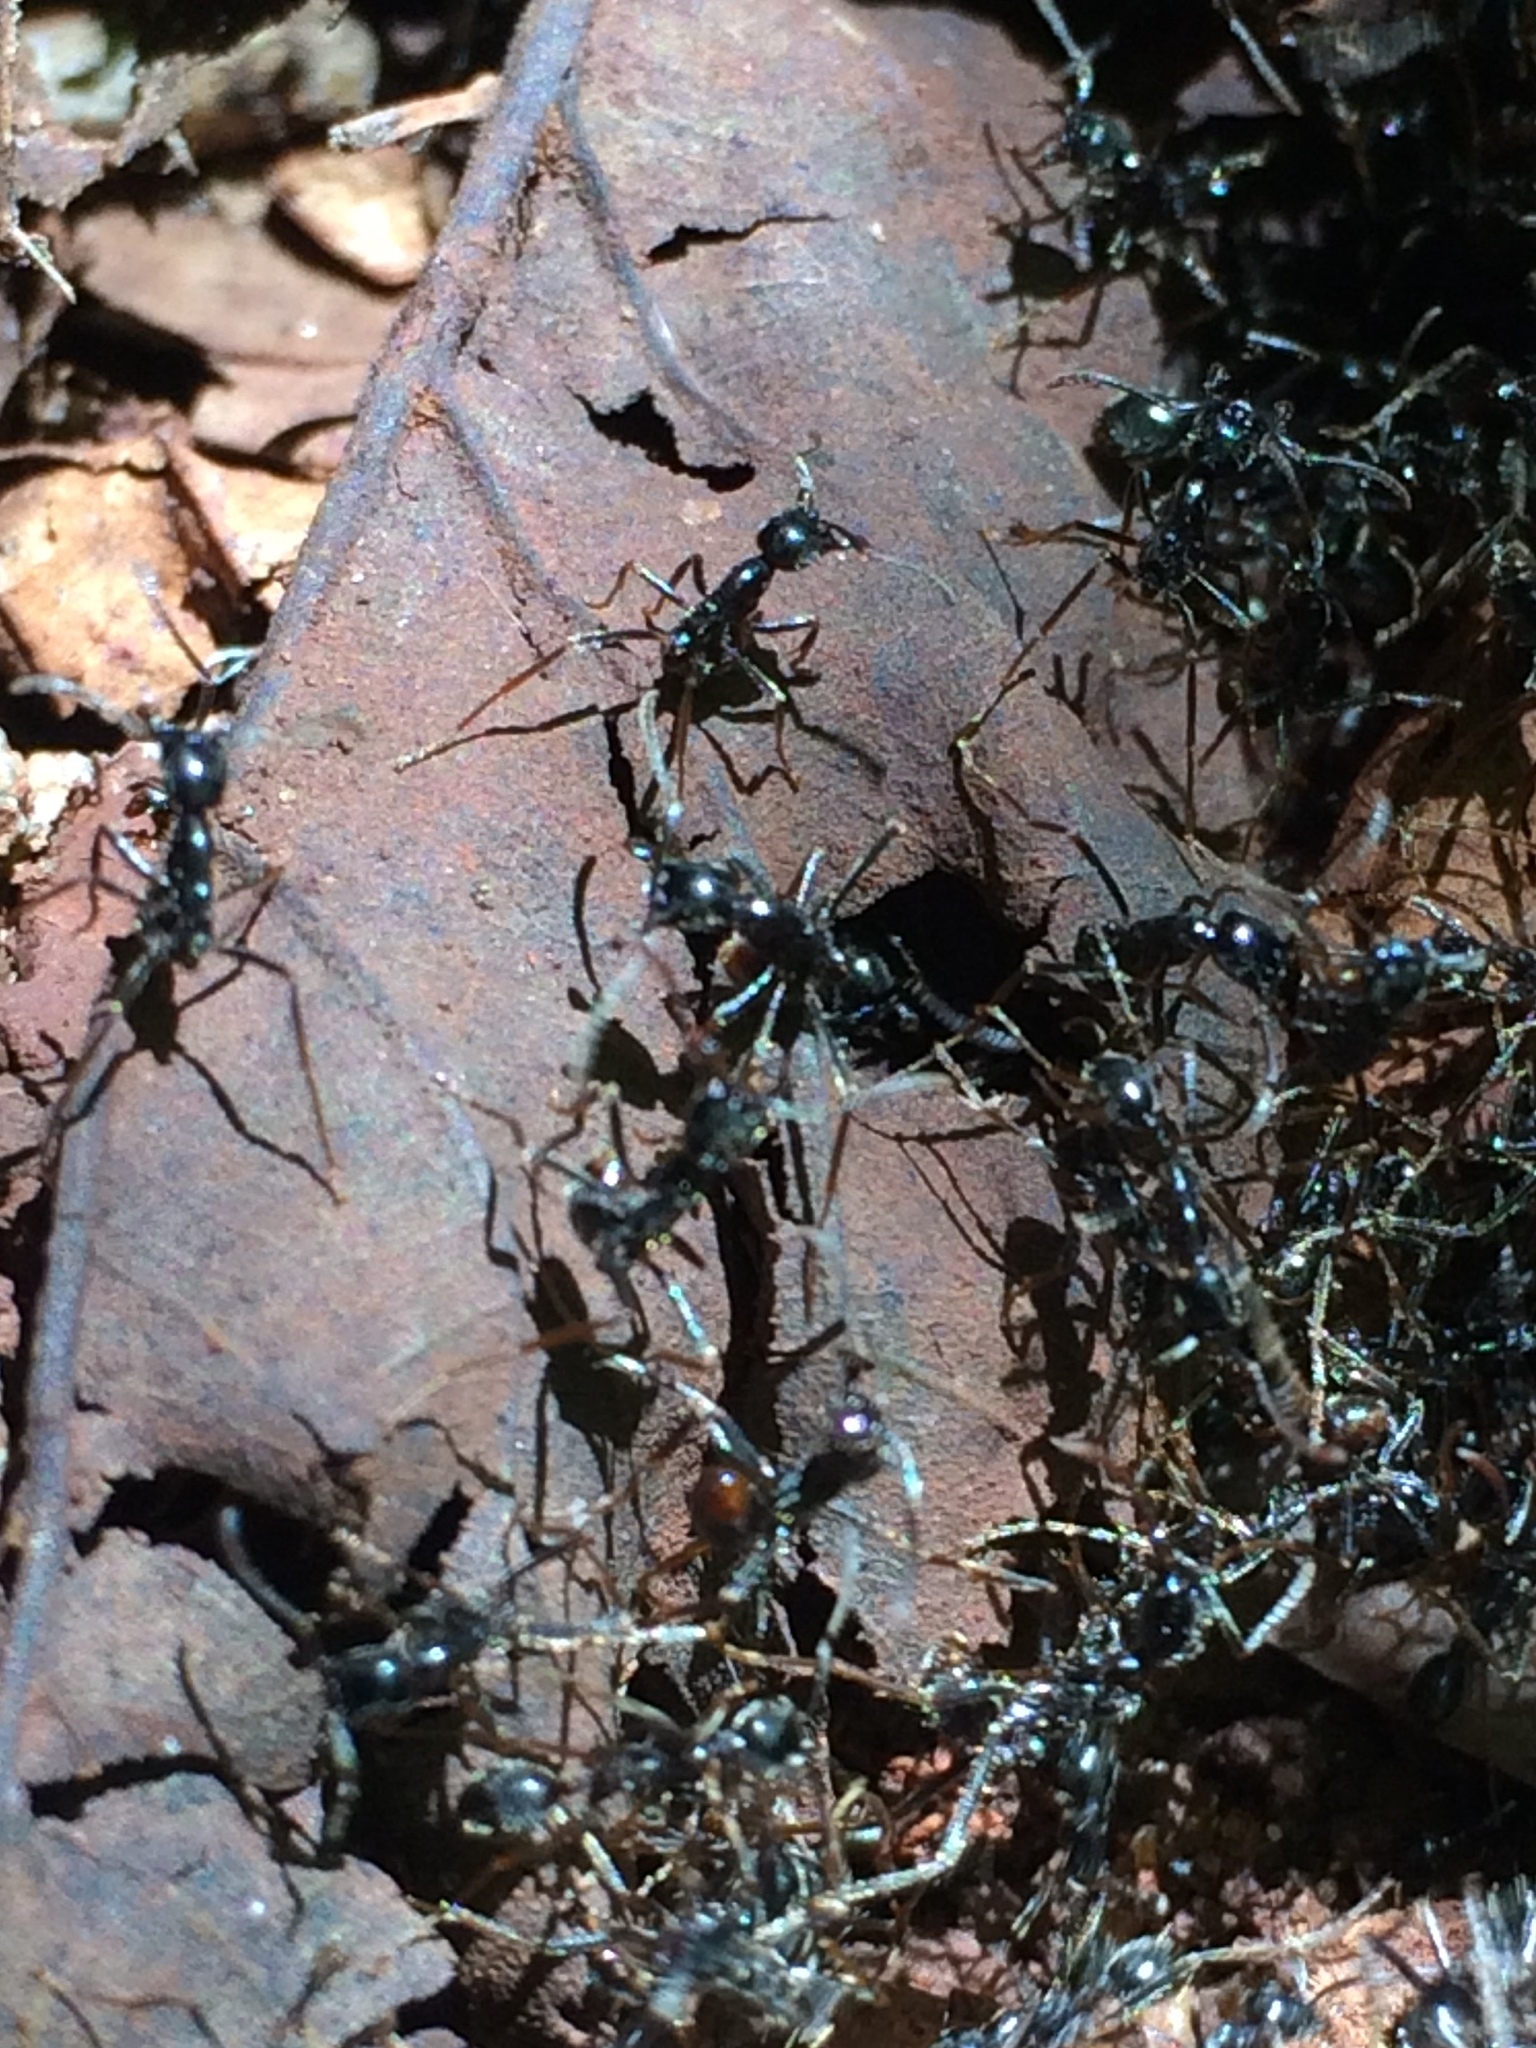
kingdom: Animalia
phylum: Arthropoda
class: Insecta
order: Hymenoptera
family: Formicidae
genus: Labidus
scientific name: Labidus praedator
